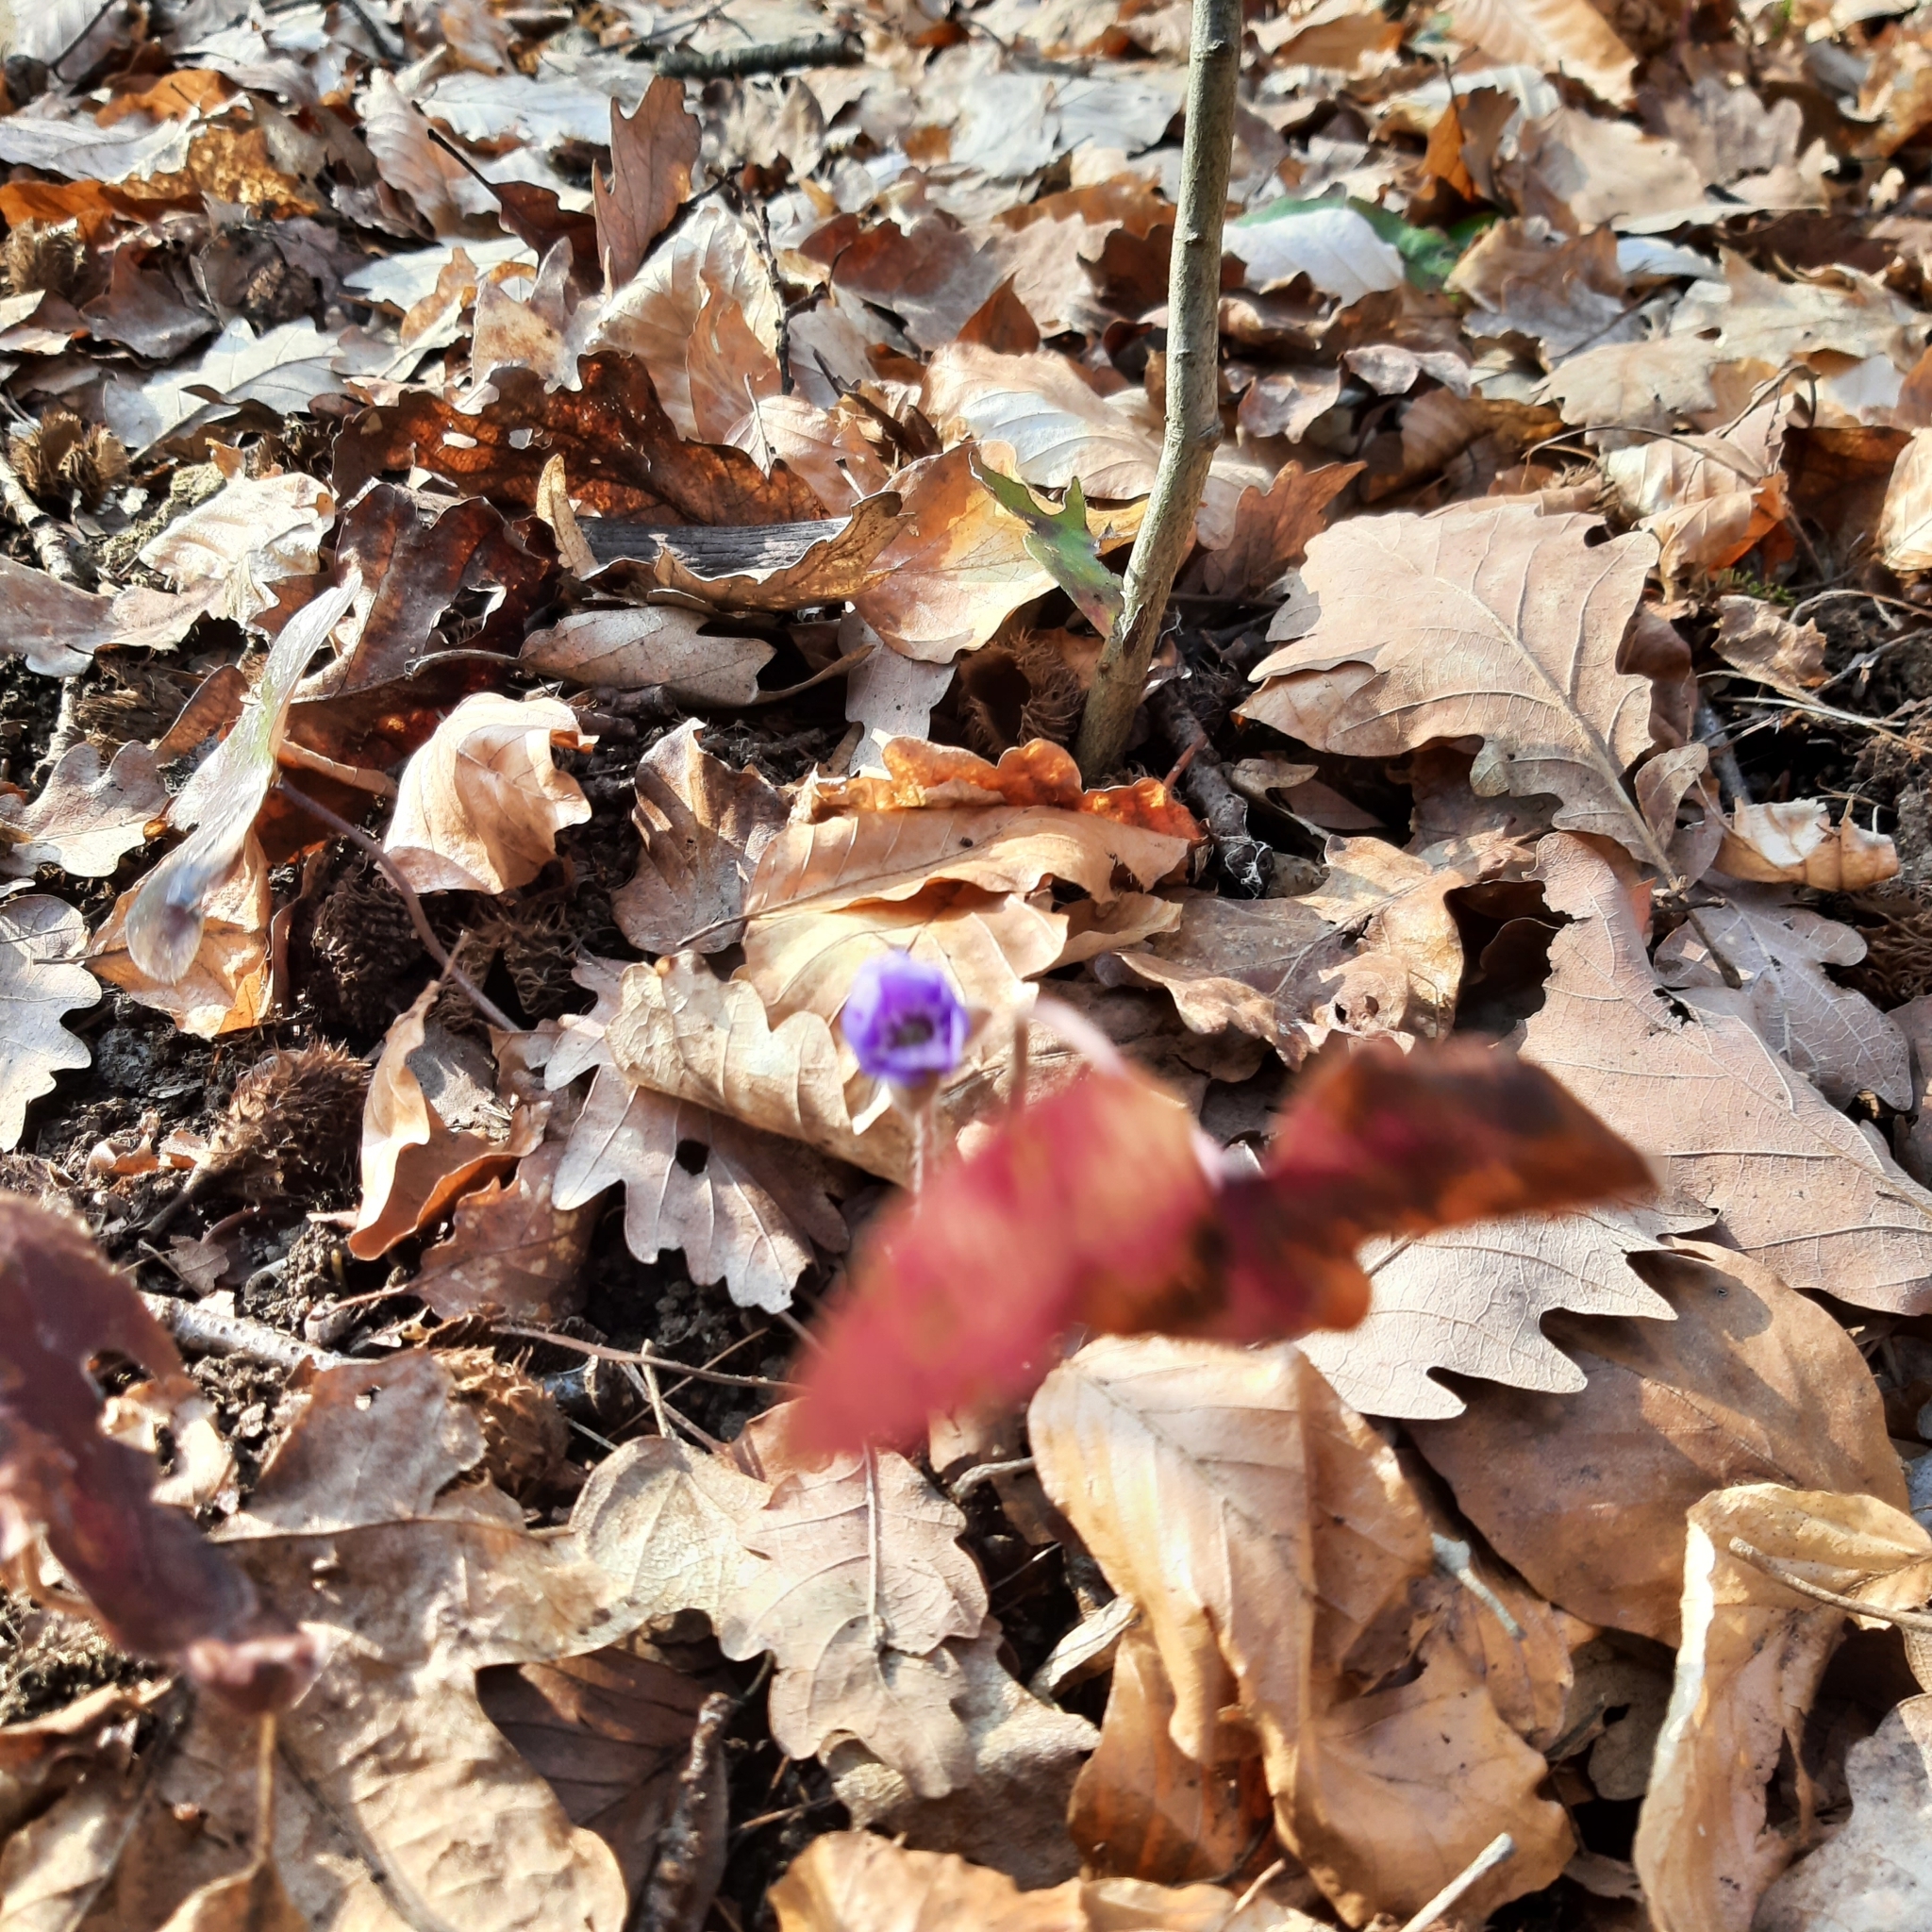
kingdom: Plantae
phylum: Tracheophyta
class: Magnoliopsida
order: Ranunculales
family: Ranunculaceae
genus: Hepatica
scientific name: Hepatica nobilis
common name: Liverleaf
